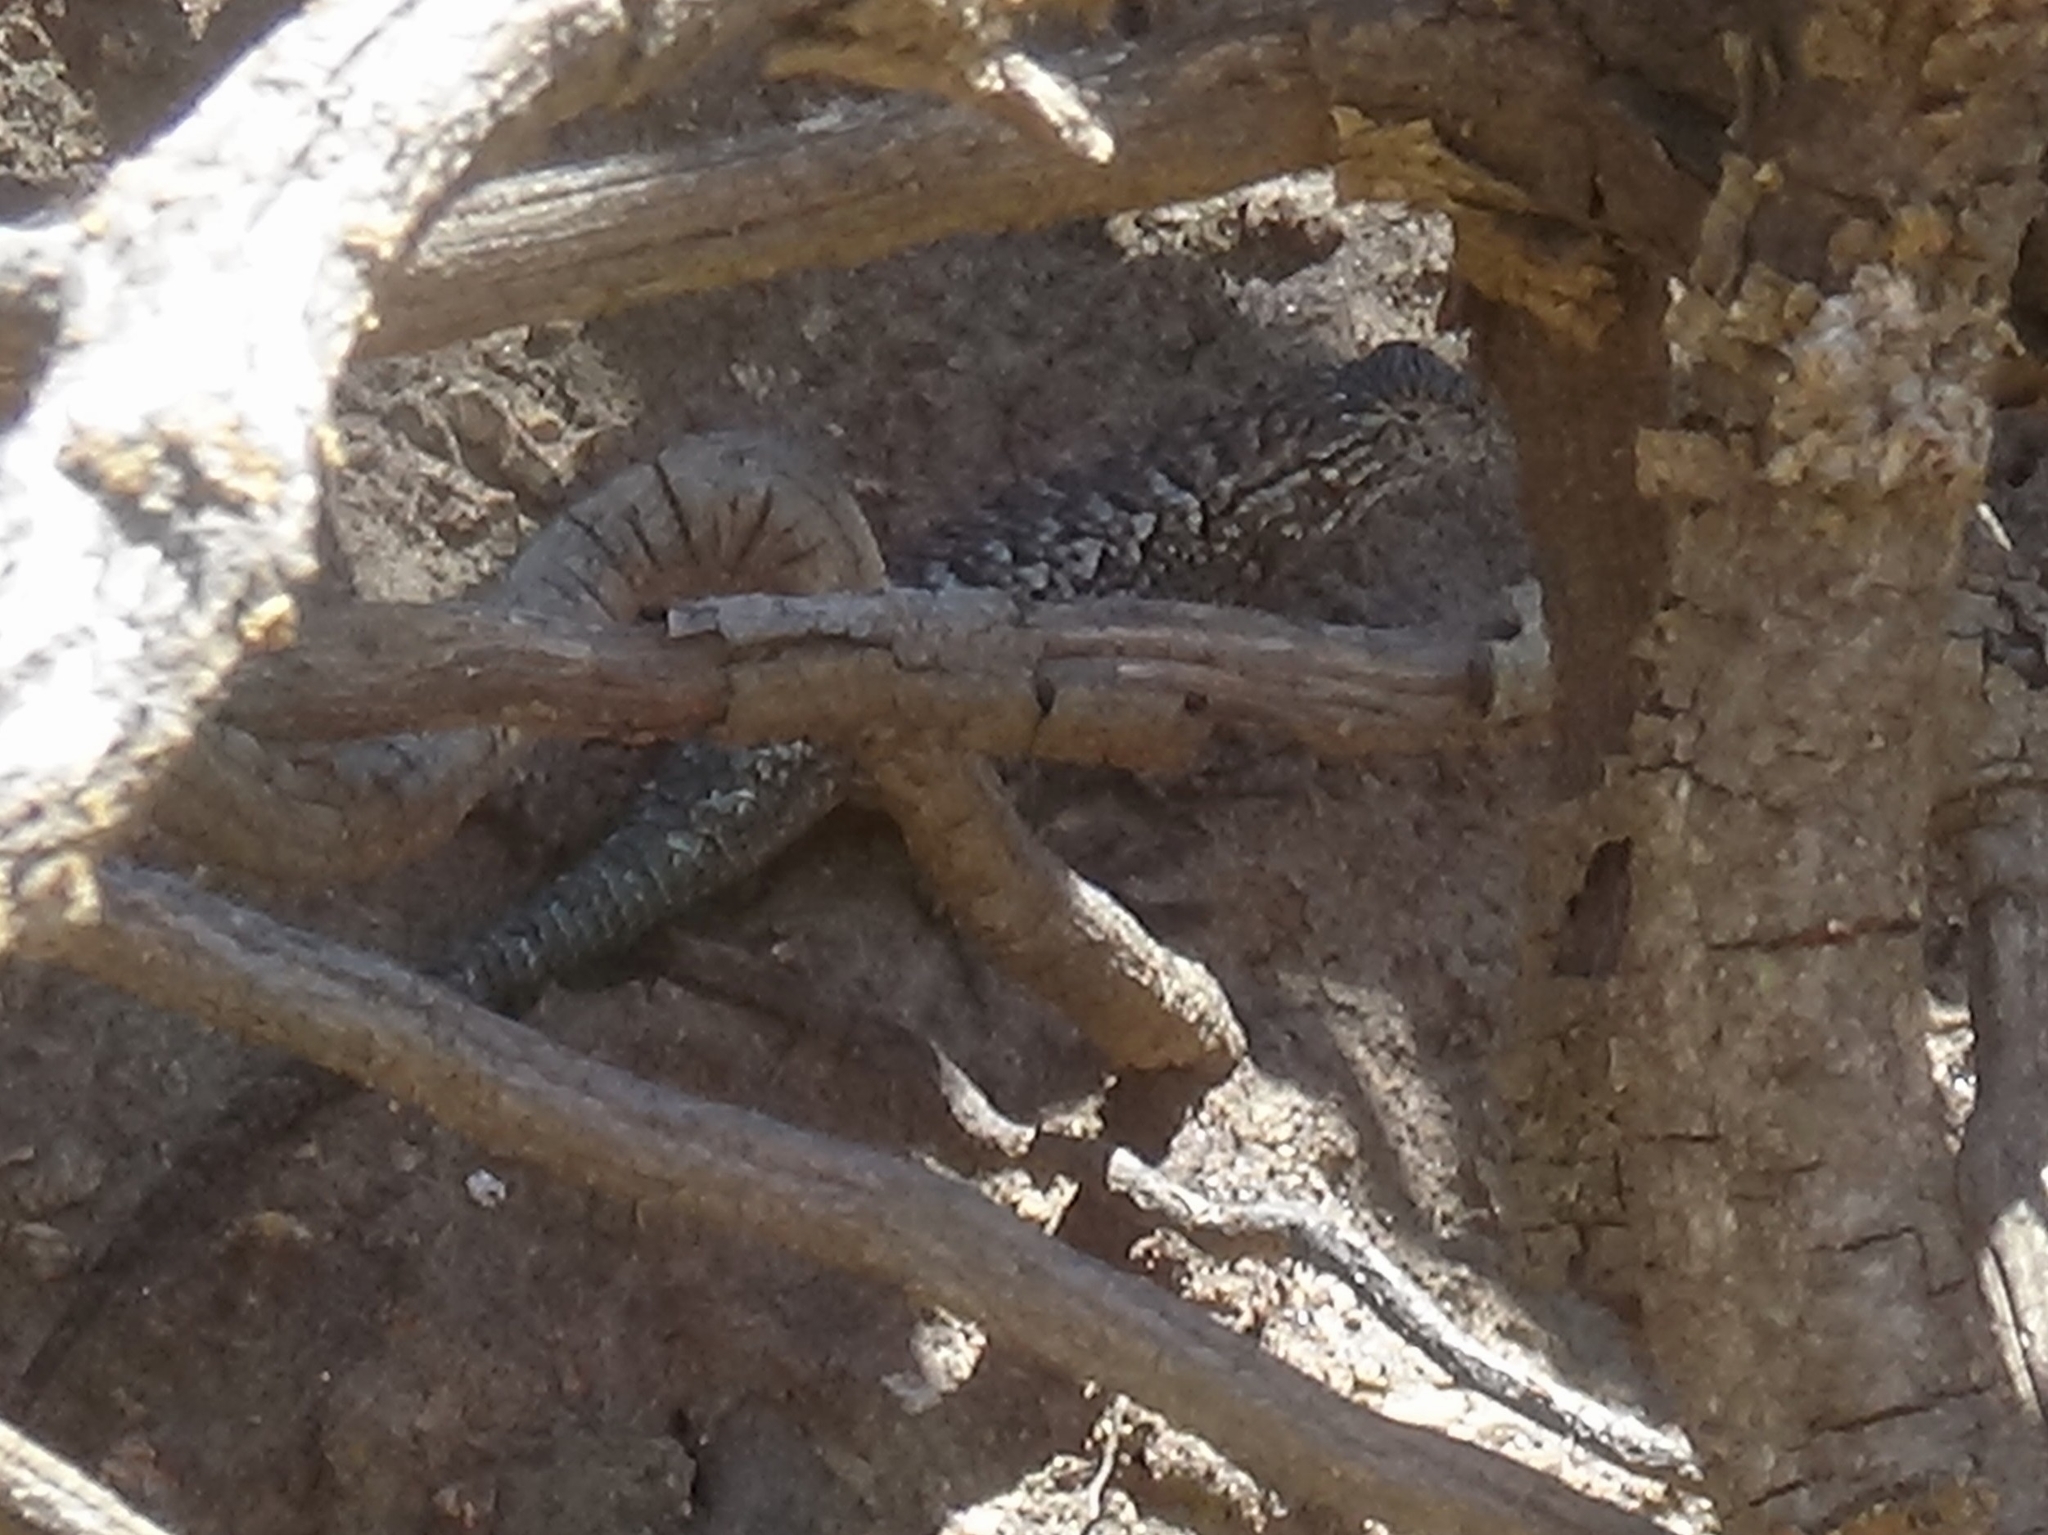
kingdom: Animalia
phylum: Chordata
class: Squamata
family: Phrynosomatidae
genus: Sceloporus
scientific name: Sceloporus occidentalis
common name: Western fence lizard
